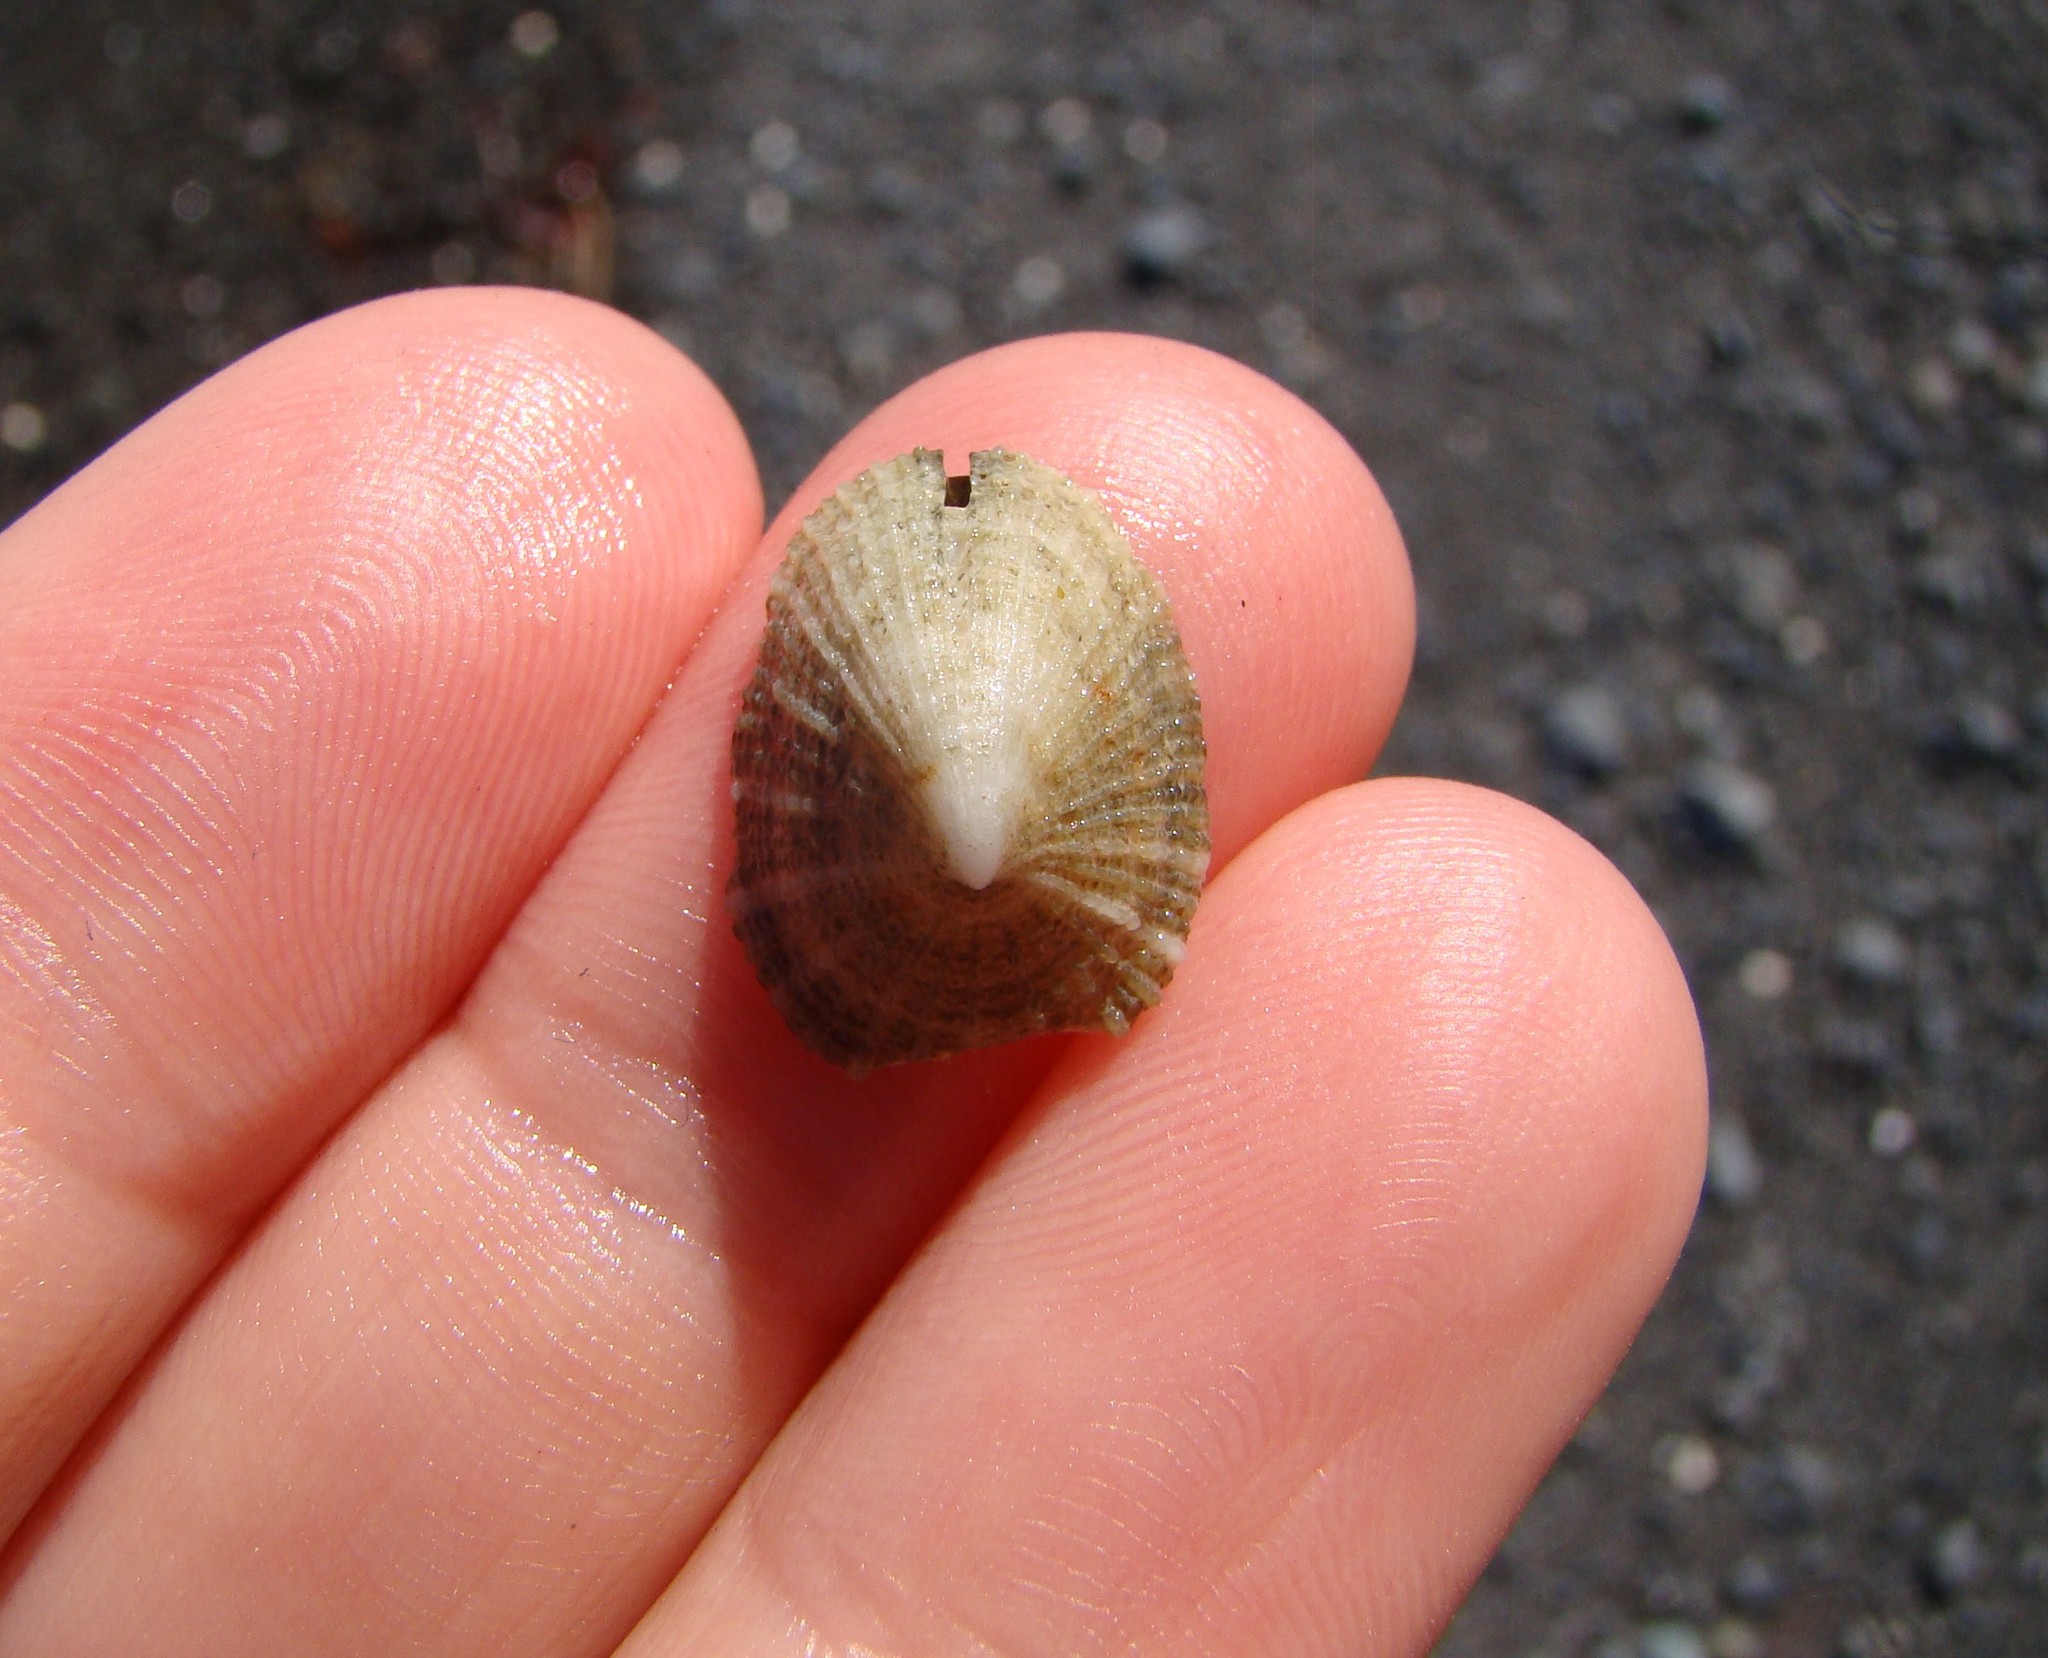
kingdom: Animalia
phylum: Mollusca
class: Gastropoda
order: Lepetellida
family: Fissurellidae
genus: Emarginula
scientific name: Emarginula striatula
